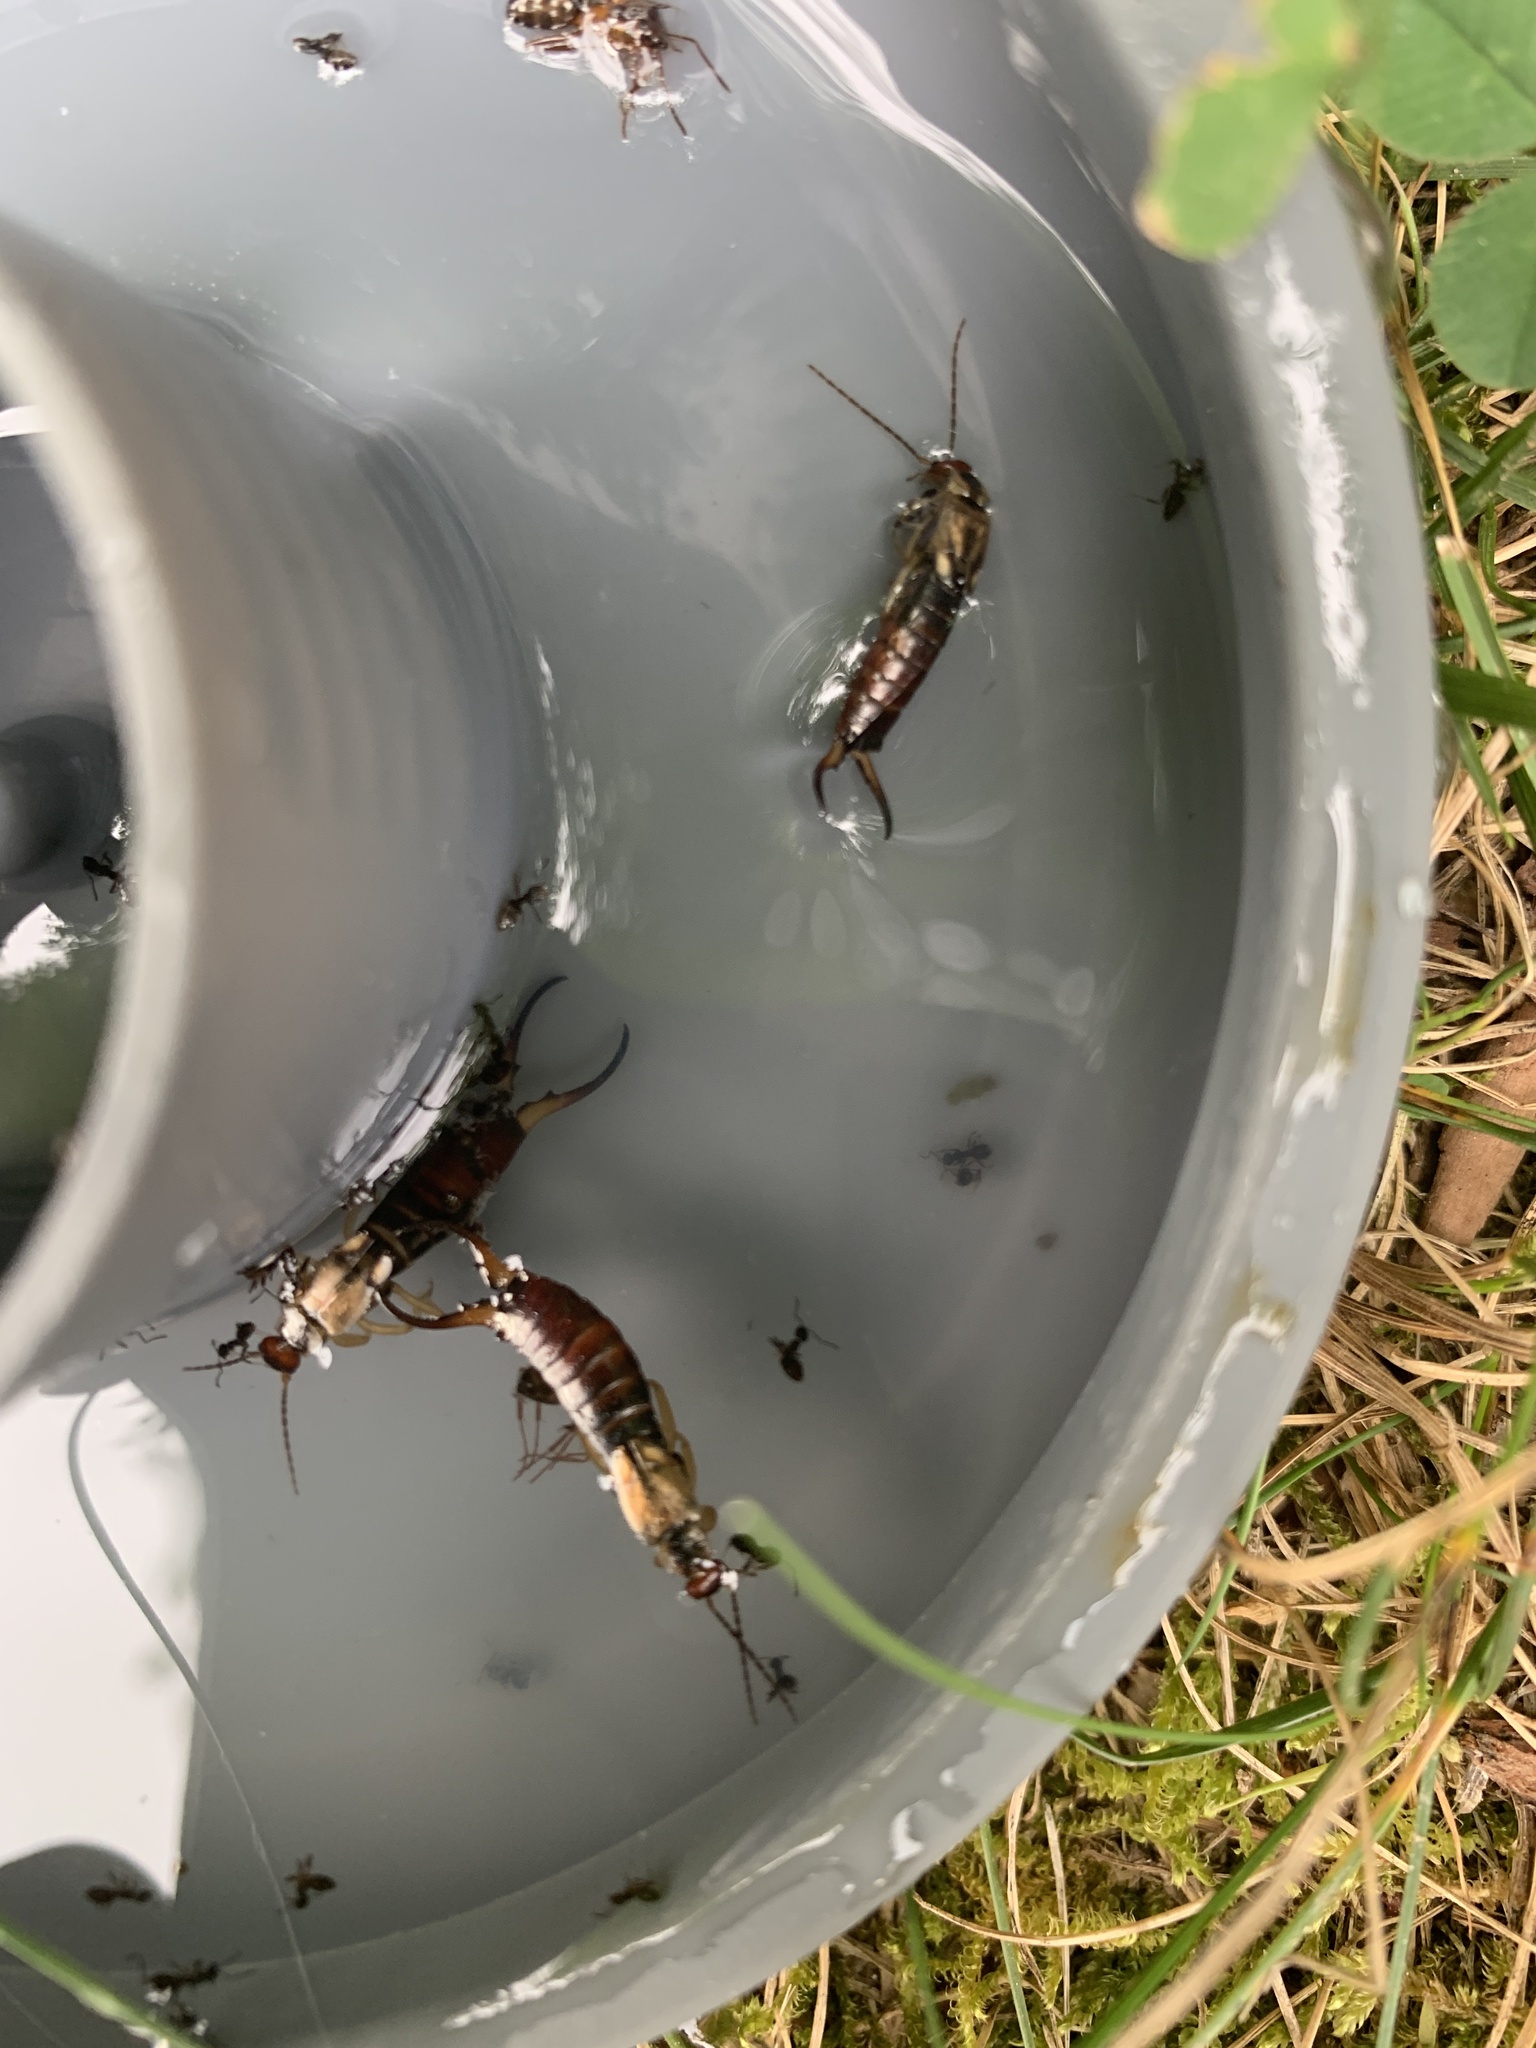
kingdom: Animalia
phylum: Arthropoda
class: Insecta
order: Dermaptera
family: Forficulidae
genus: Forficula
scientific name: Forficula
